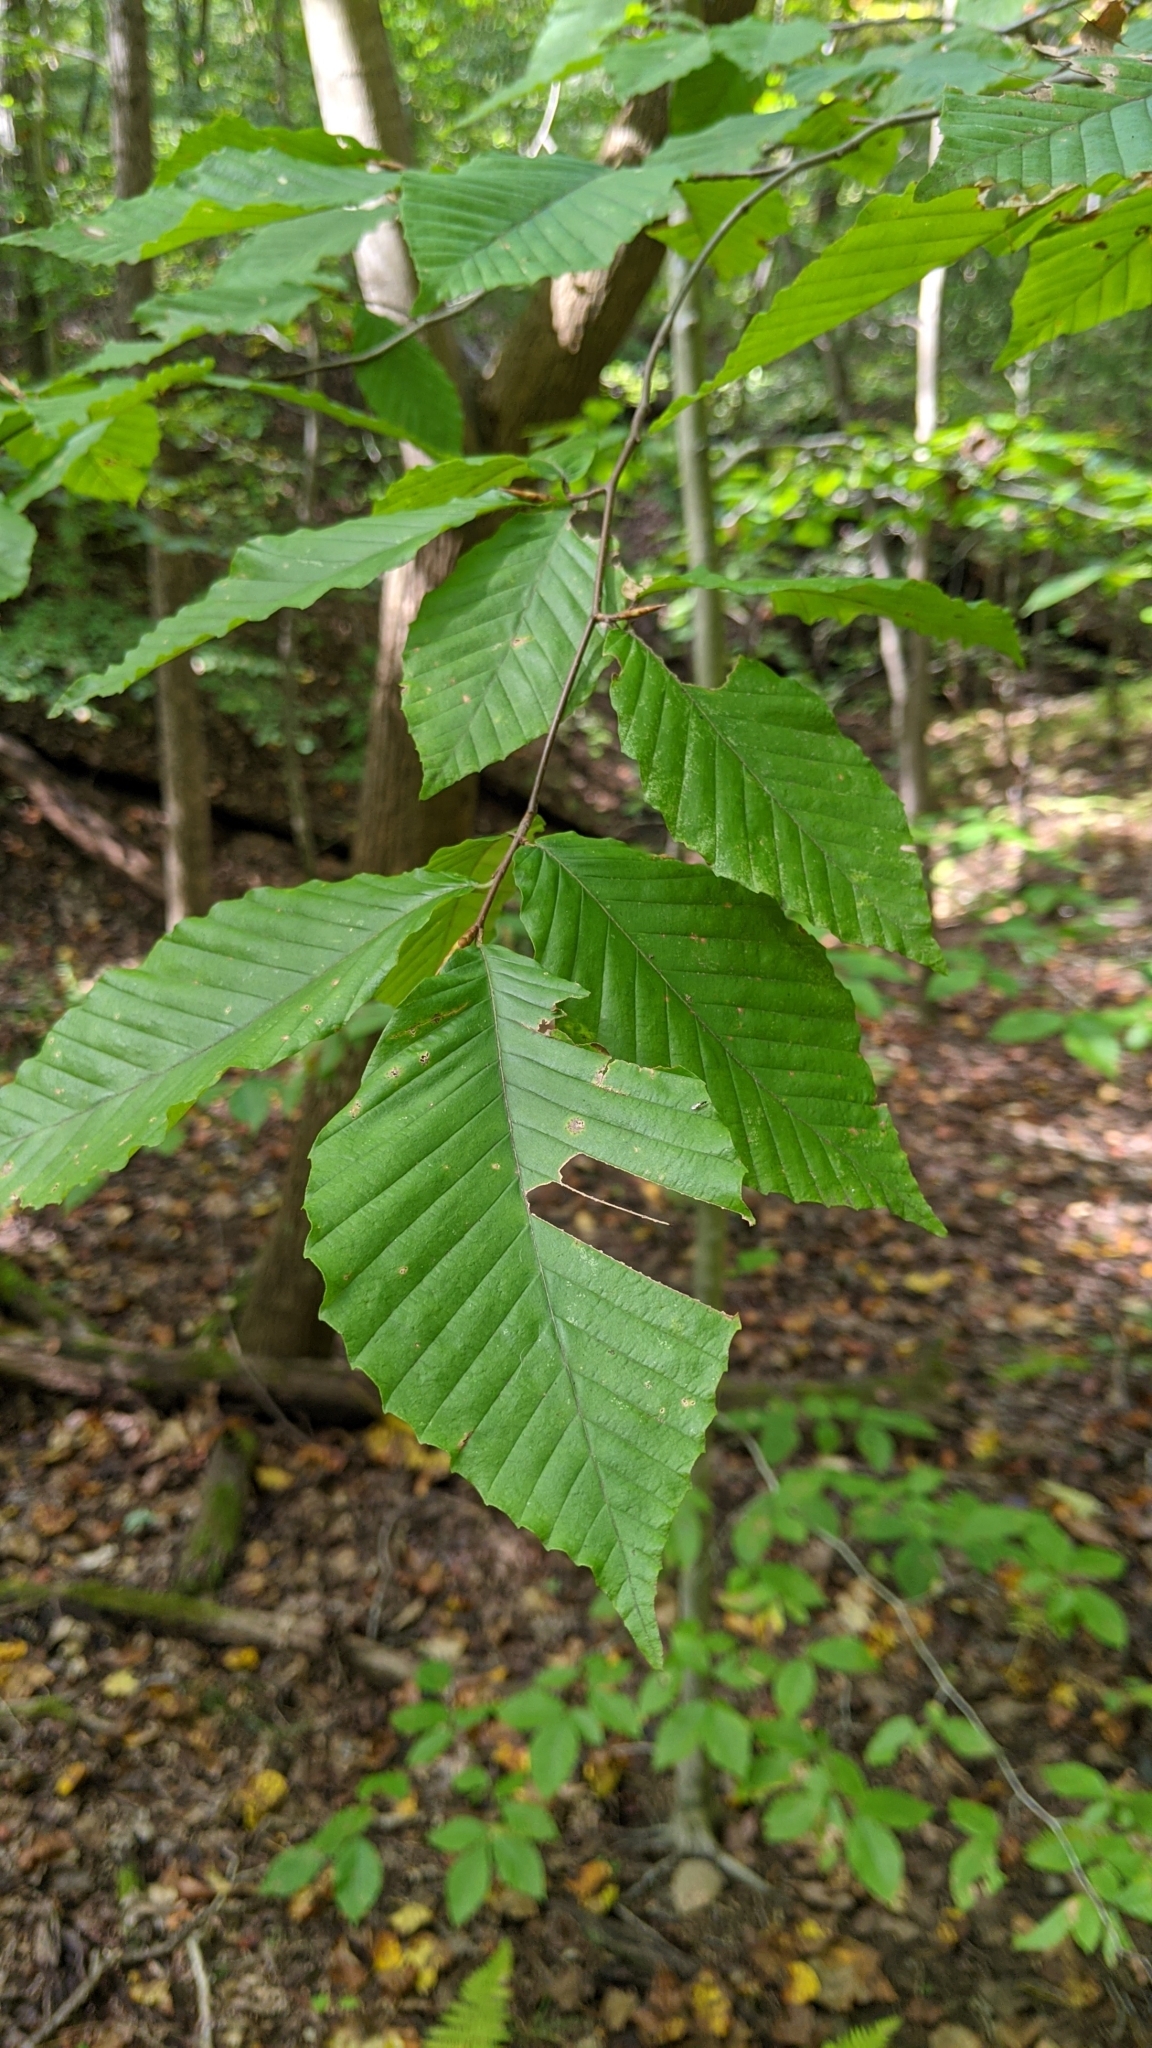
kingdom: Plantae
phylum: Tracheophyta
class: Magnoliopsida
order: Fagales
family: Fagaceae
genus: Fagus
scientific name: Fagus grandifolia
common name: American beech
